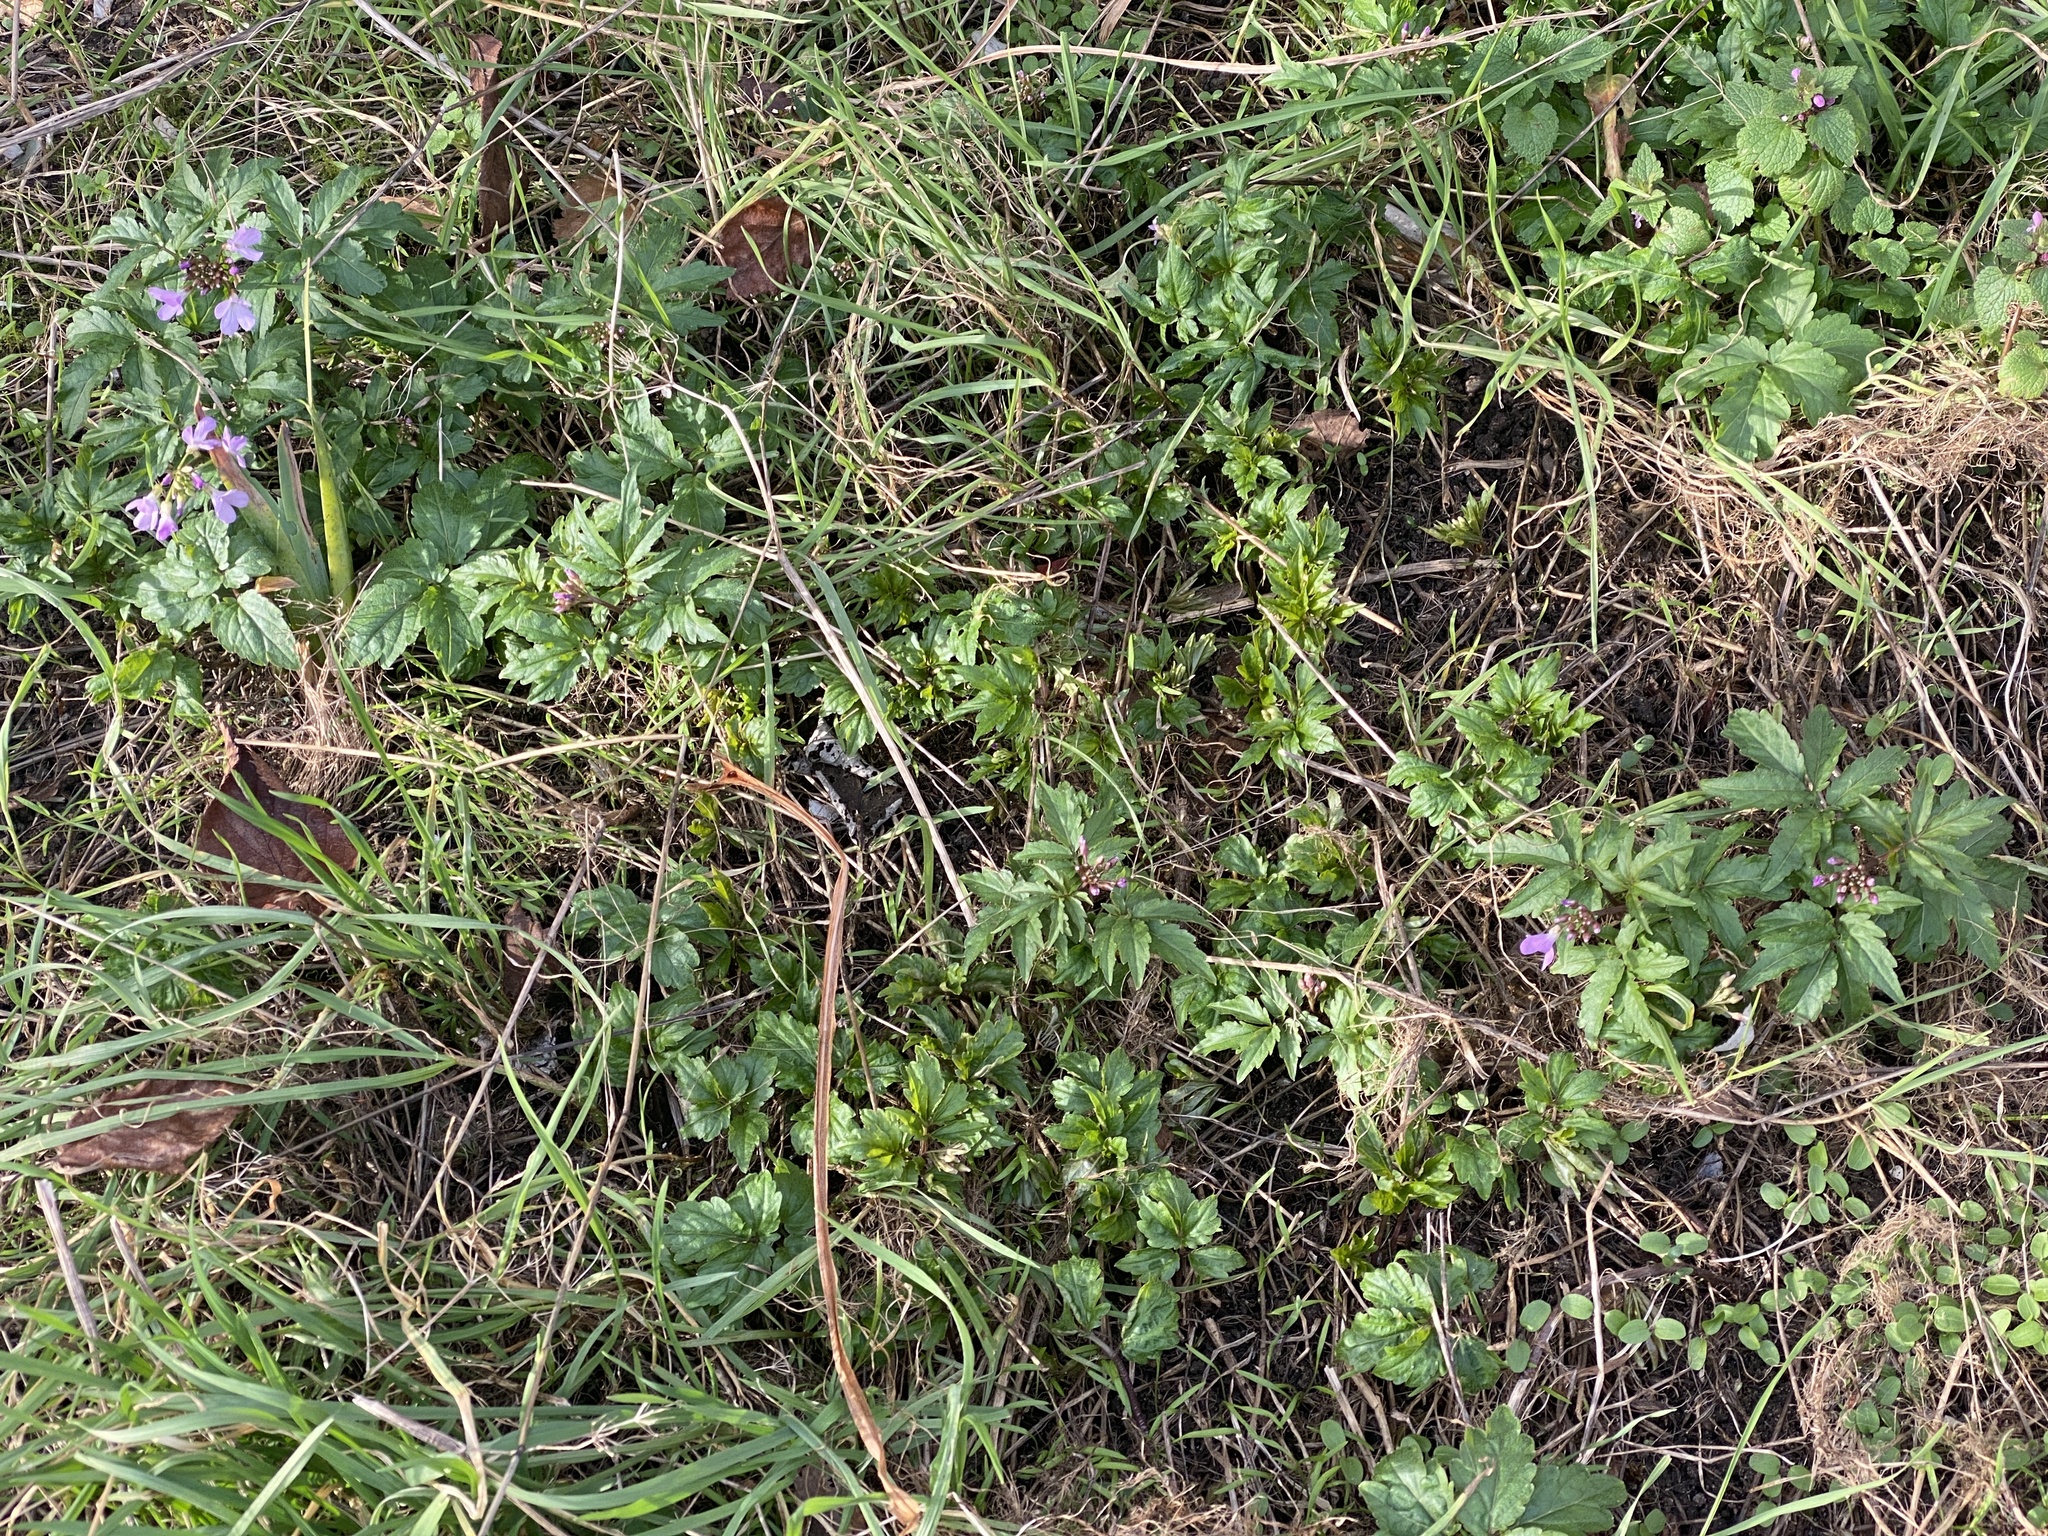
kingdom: Plantae
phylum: Tracheophyta
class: Magnoliopsida
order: Brassicales
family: Brassicaceae
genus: Cardamine
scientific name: Cardamine quinquefolia
